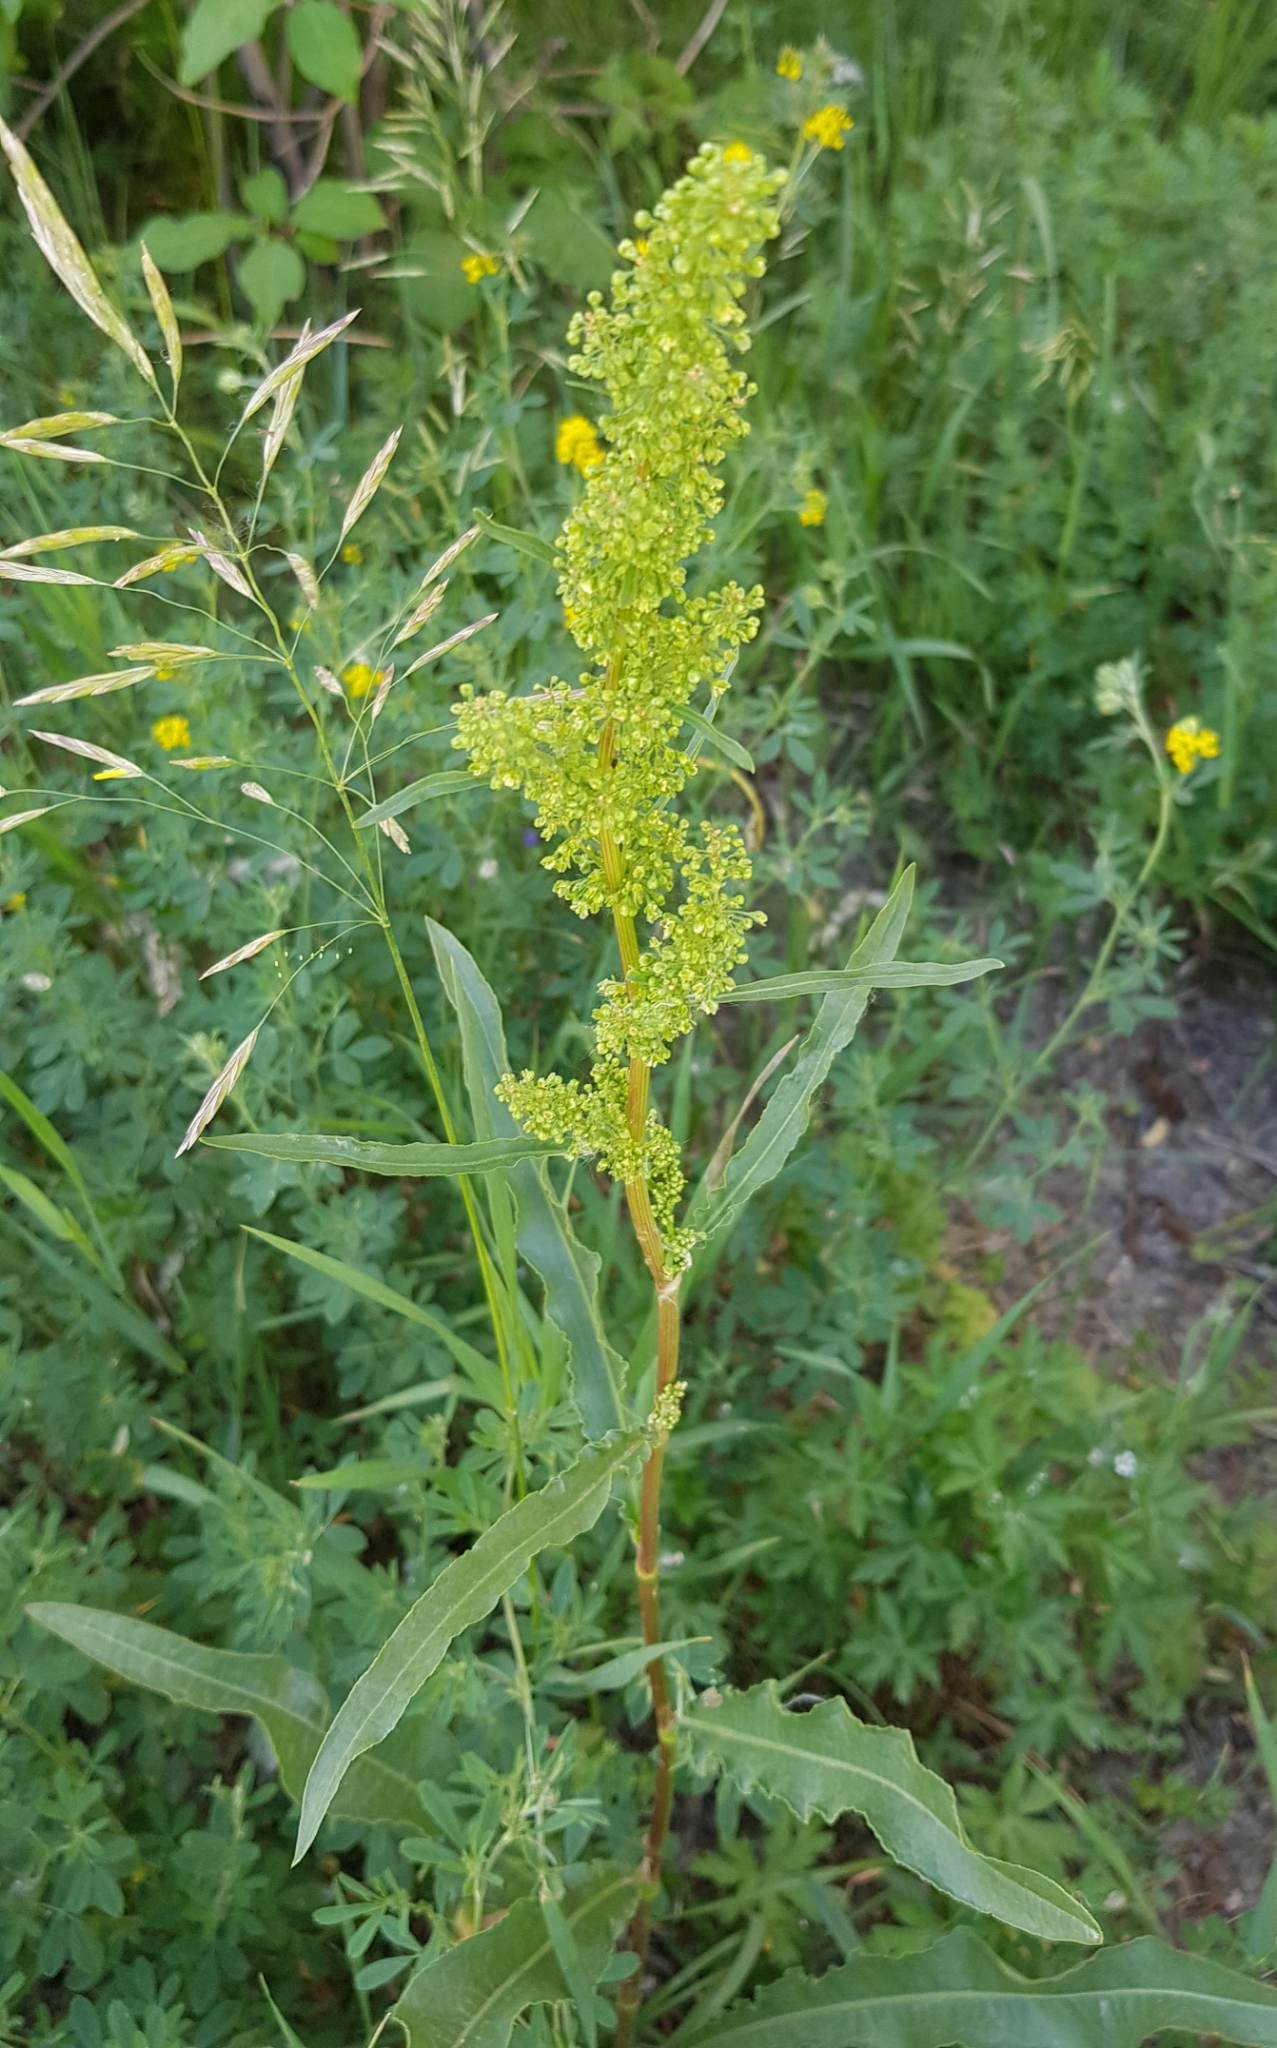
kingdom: Plantae
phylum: Tracheophyta
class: Magnoliopsida
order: Caryophyllales
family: Polygonaceae
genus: Rumex
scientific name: Rumex pseudonatronatus
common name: Field dock
